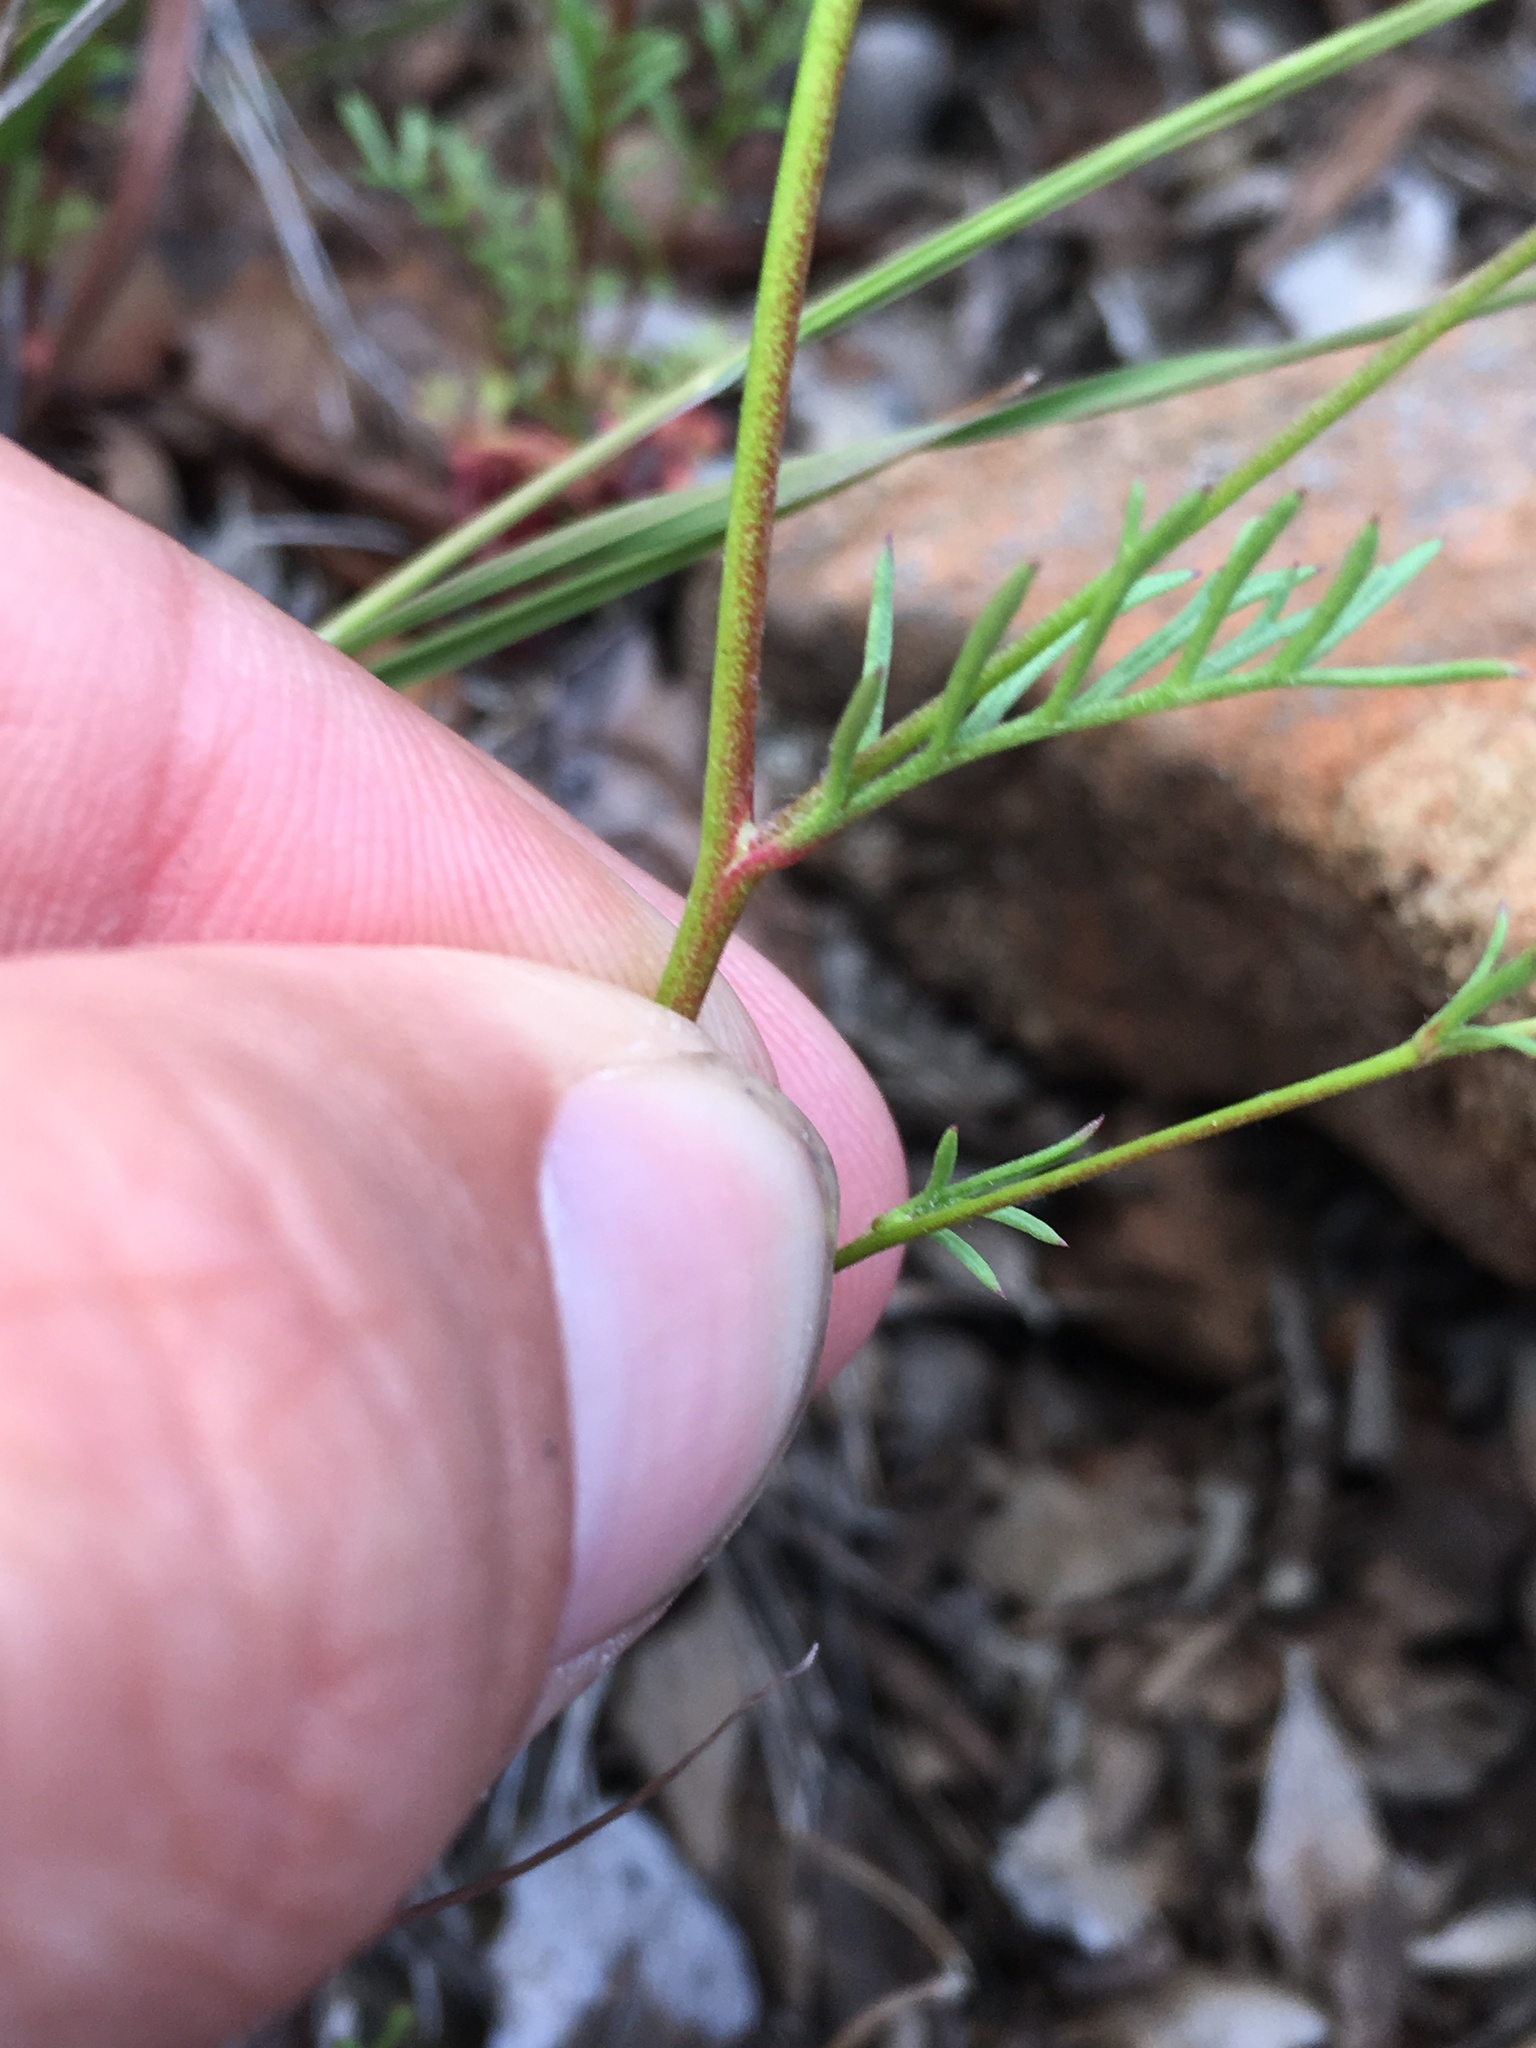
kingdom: Plantae
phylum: Tracheophyta
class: Magnoliopsida
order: Ericales
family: Polemoniaceae
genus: Gilia
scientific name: Gilia achilleifolia
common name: California gily-flower
